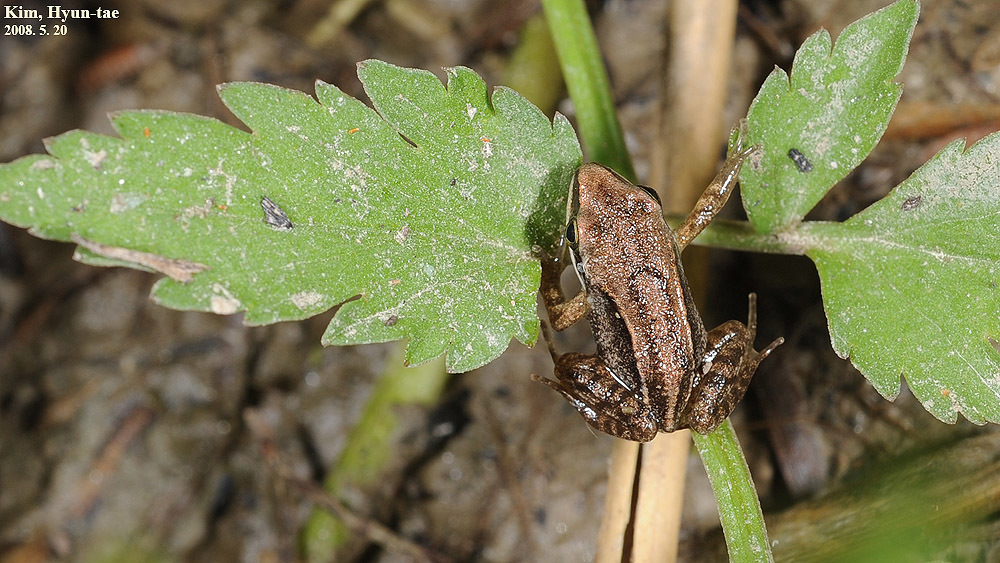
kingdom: Animalia
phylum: Chordata
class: Amphibia
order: Anura
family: Ranidae
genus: Rana
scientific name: Rana coreana
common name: Korean brown frog
